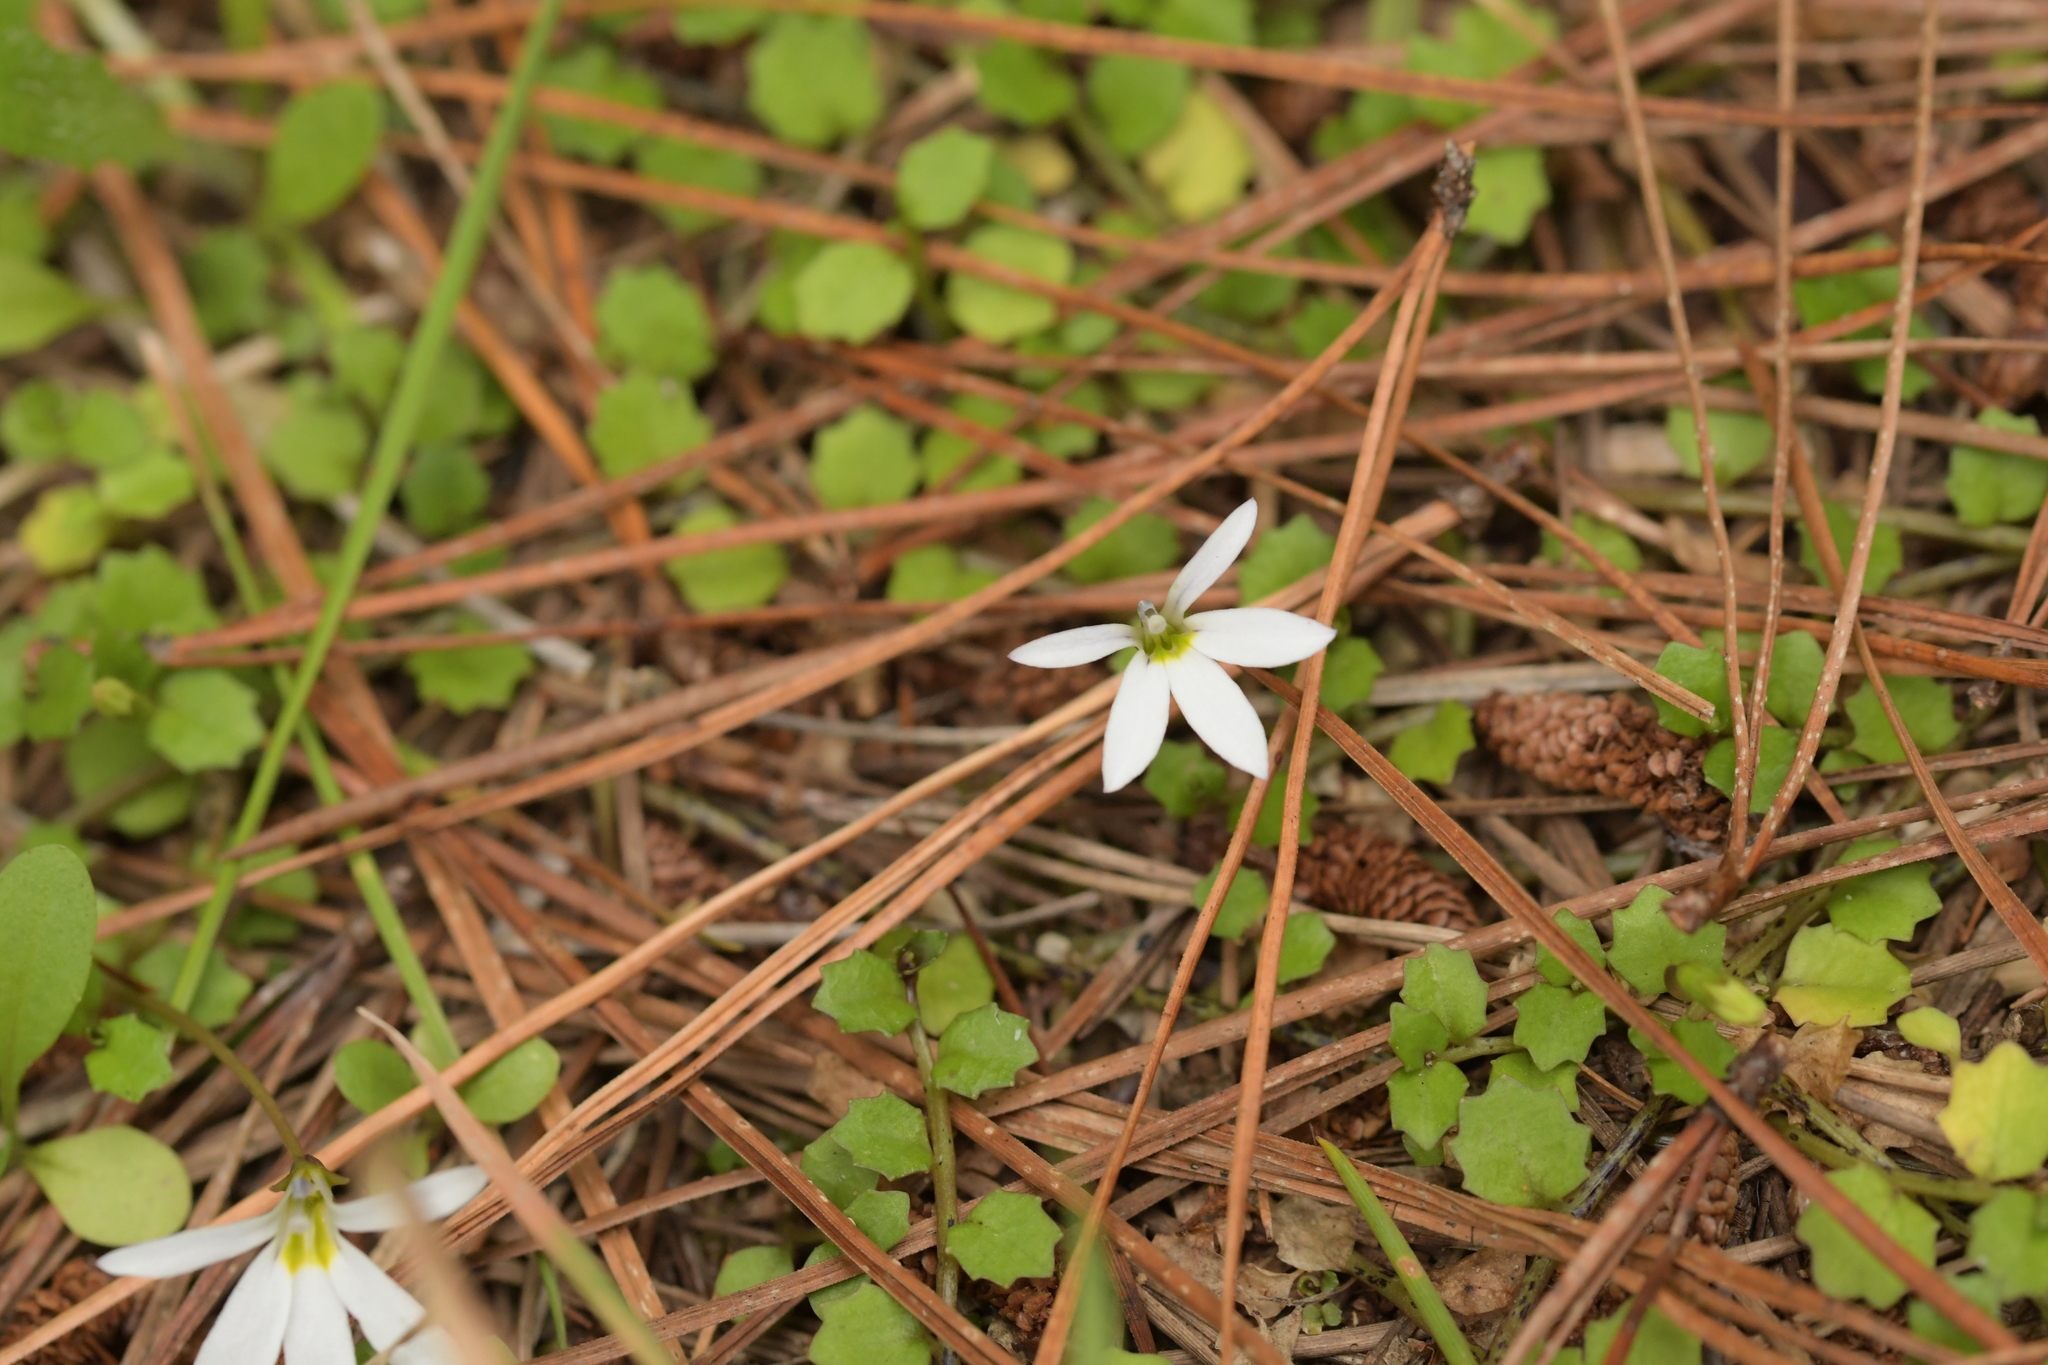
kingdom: Plantae
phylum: Tracheophyta
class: Magnoliopsida
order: Asterales
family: Campanulaceae
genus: Lobelia
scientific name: Lobelia angulata
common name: Lawn lobelia
